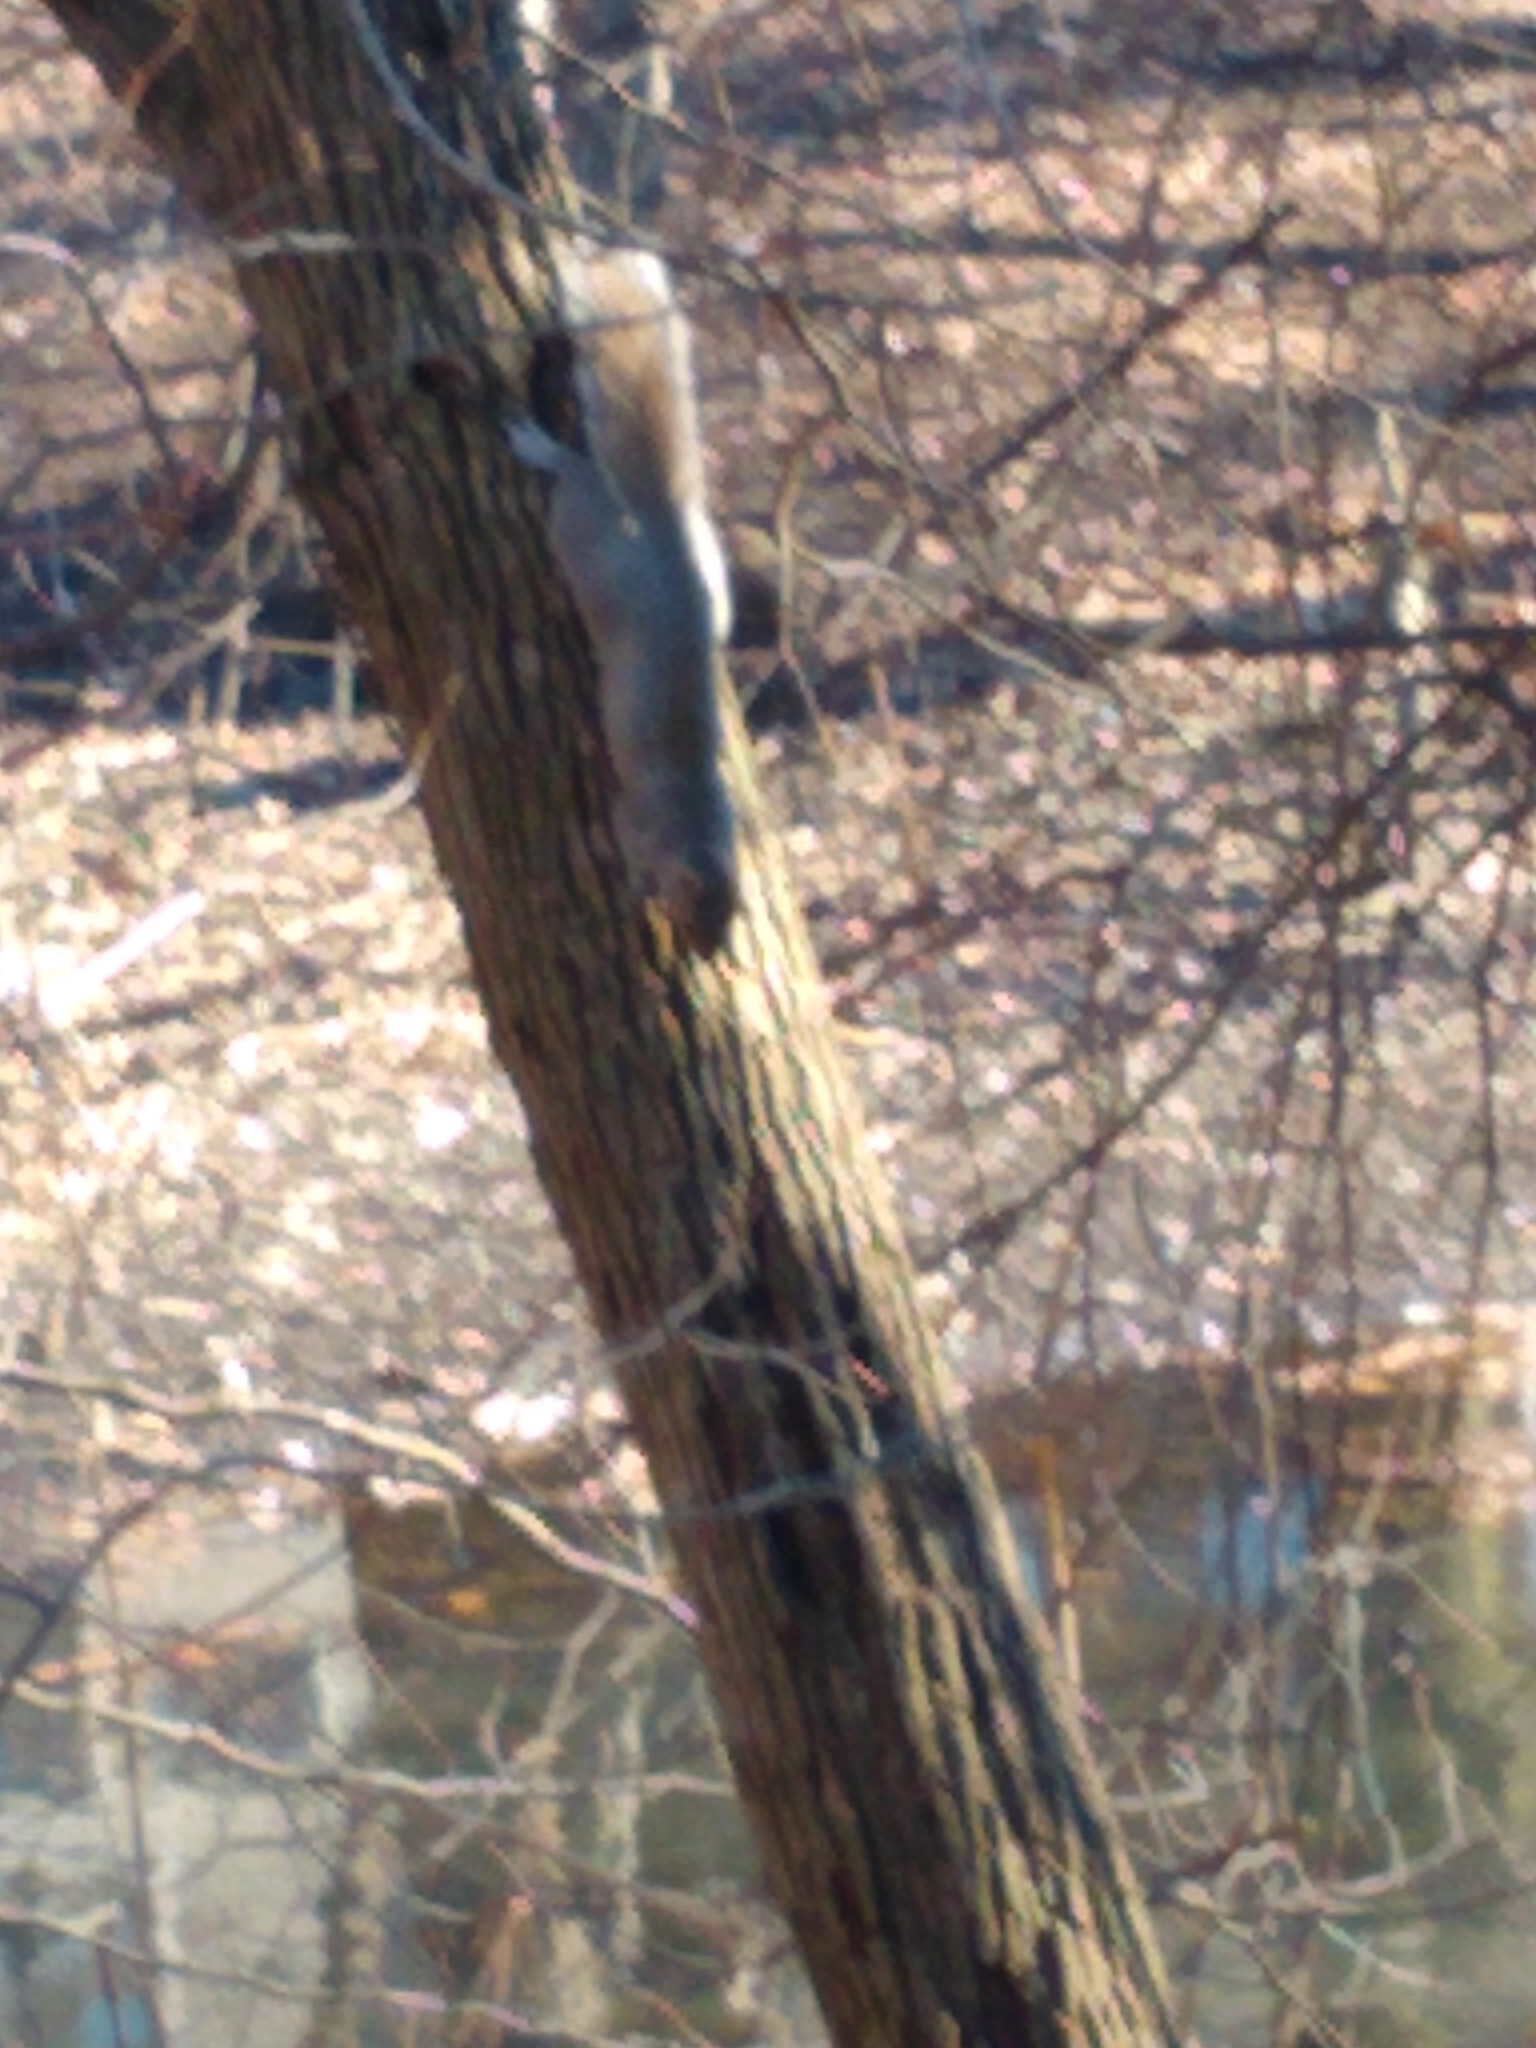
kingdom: Animalia
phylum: Chordata
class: Mammalia
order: Rodentia
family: Sciuridae
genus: Sciurus
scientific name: Sciurus carolinensis
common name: Eastern gray squirrel
